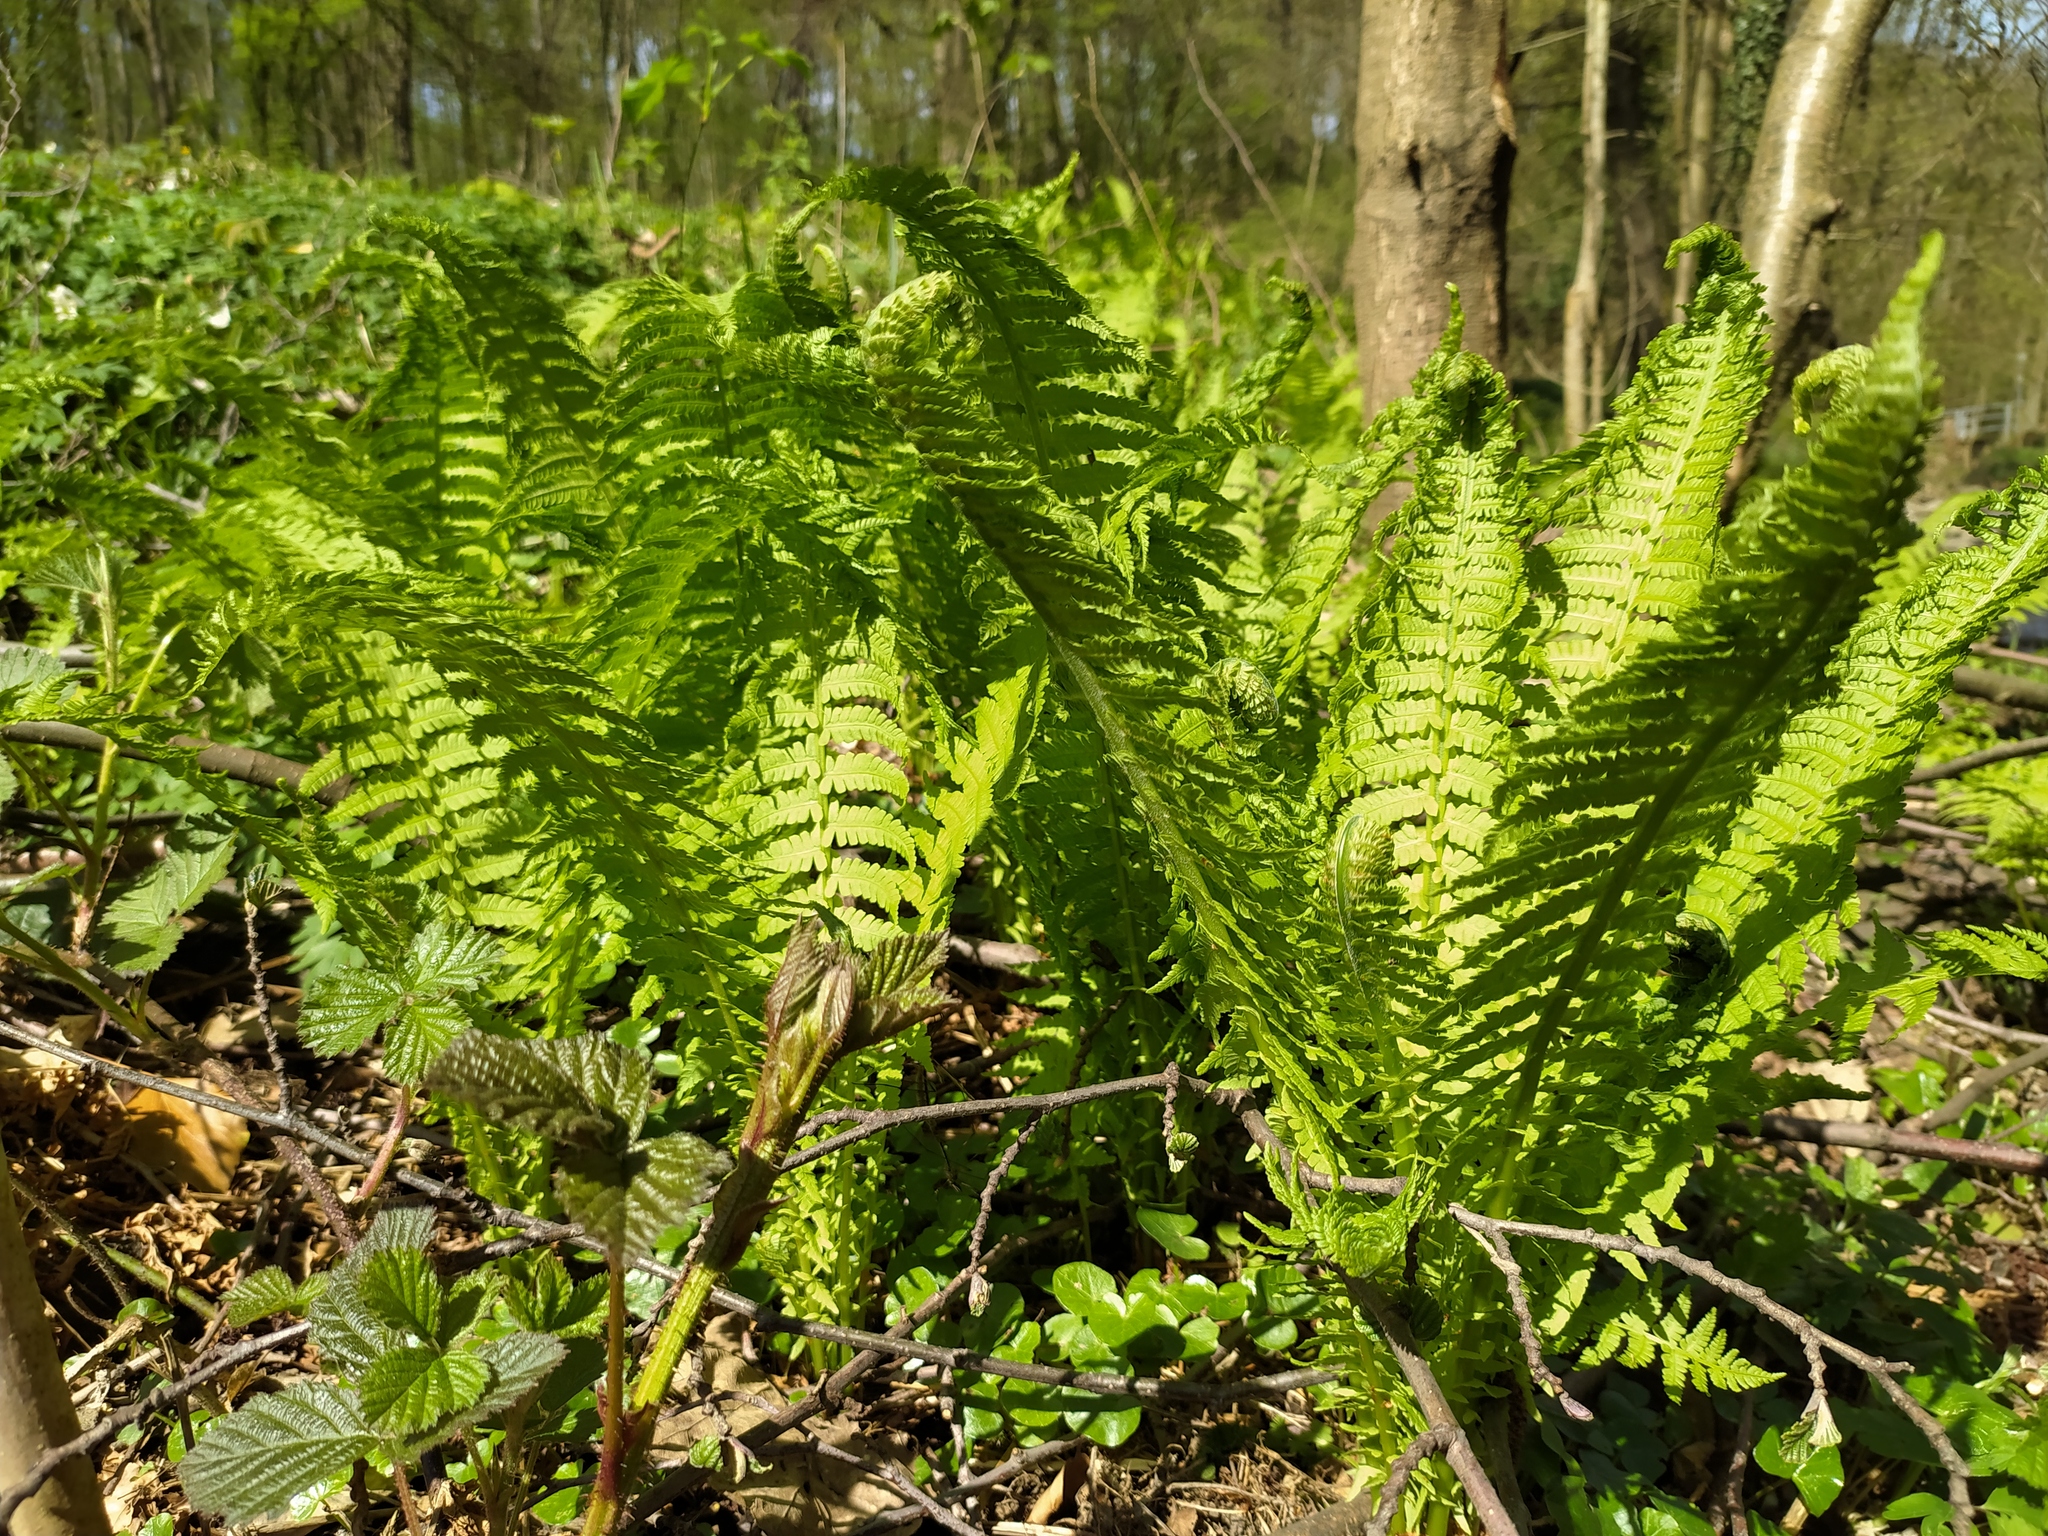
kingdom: Plantae
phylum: Tracheophyta
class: Polypodiopsida
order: Polypodiales
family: Onocleaceae
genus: Matteuccia
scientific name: Matteuccia struthiopteris
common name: Ostrich fern
